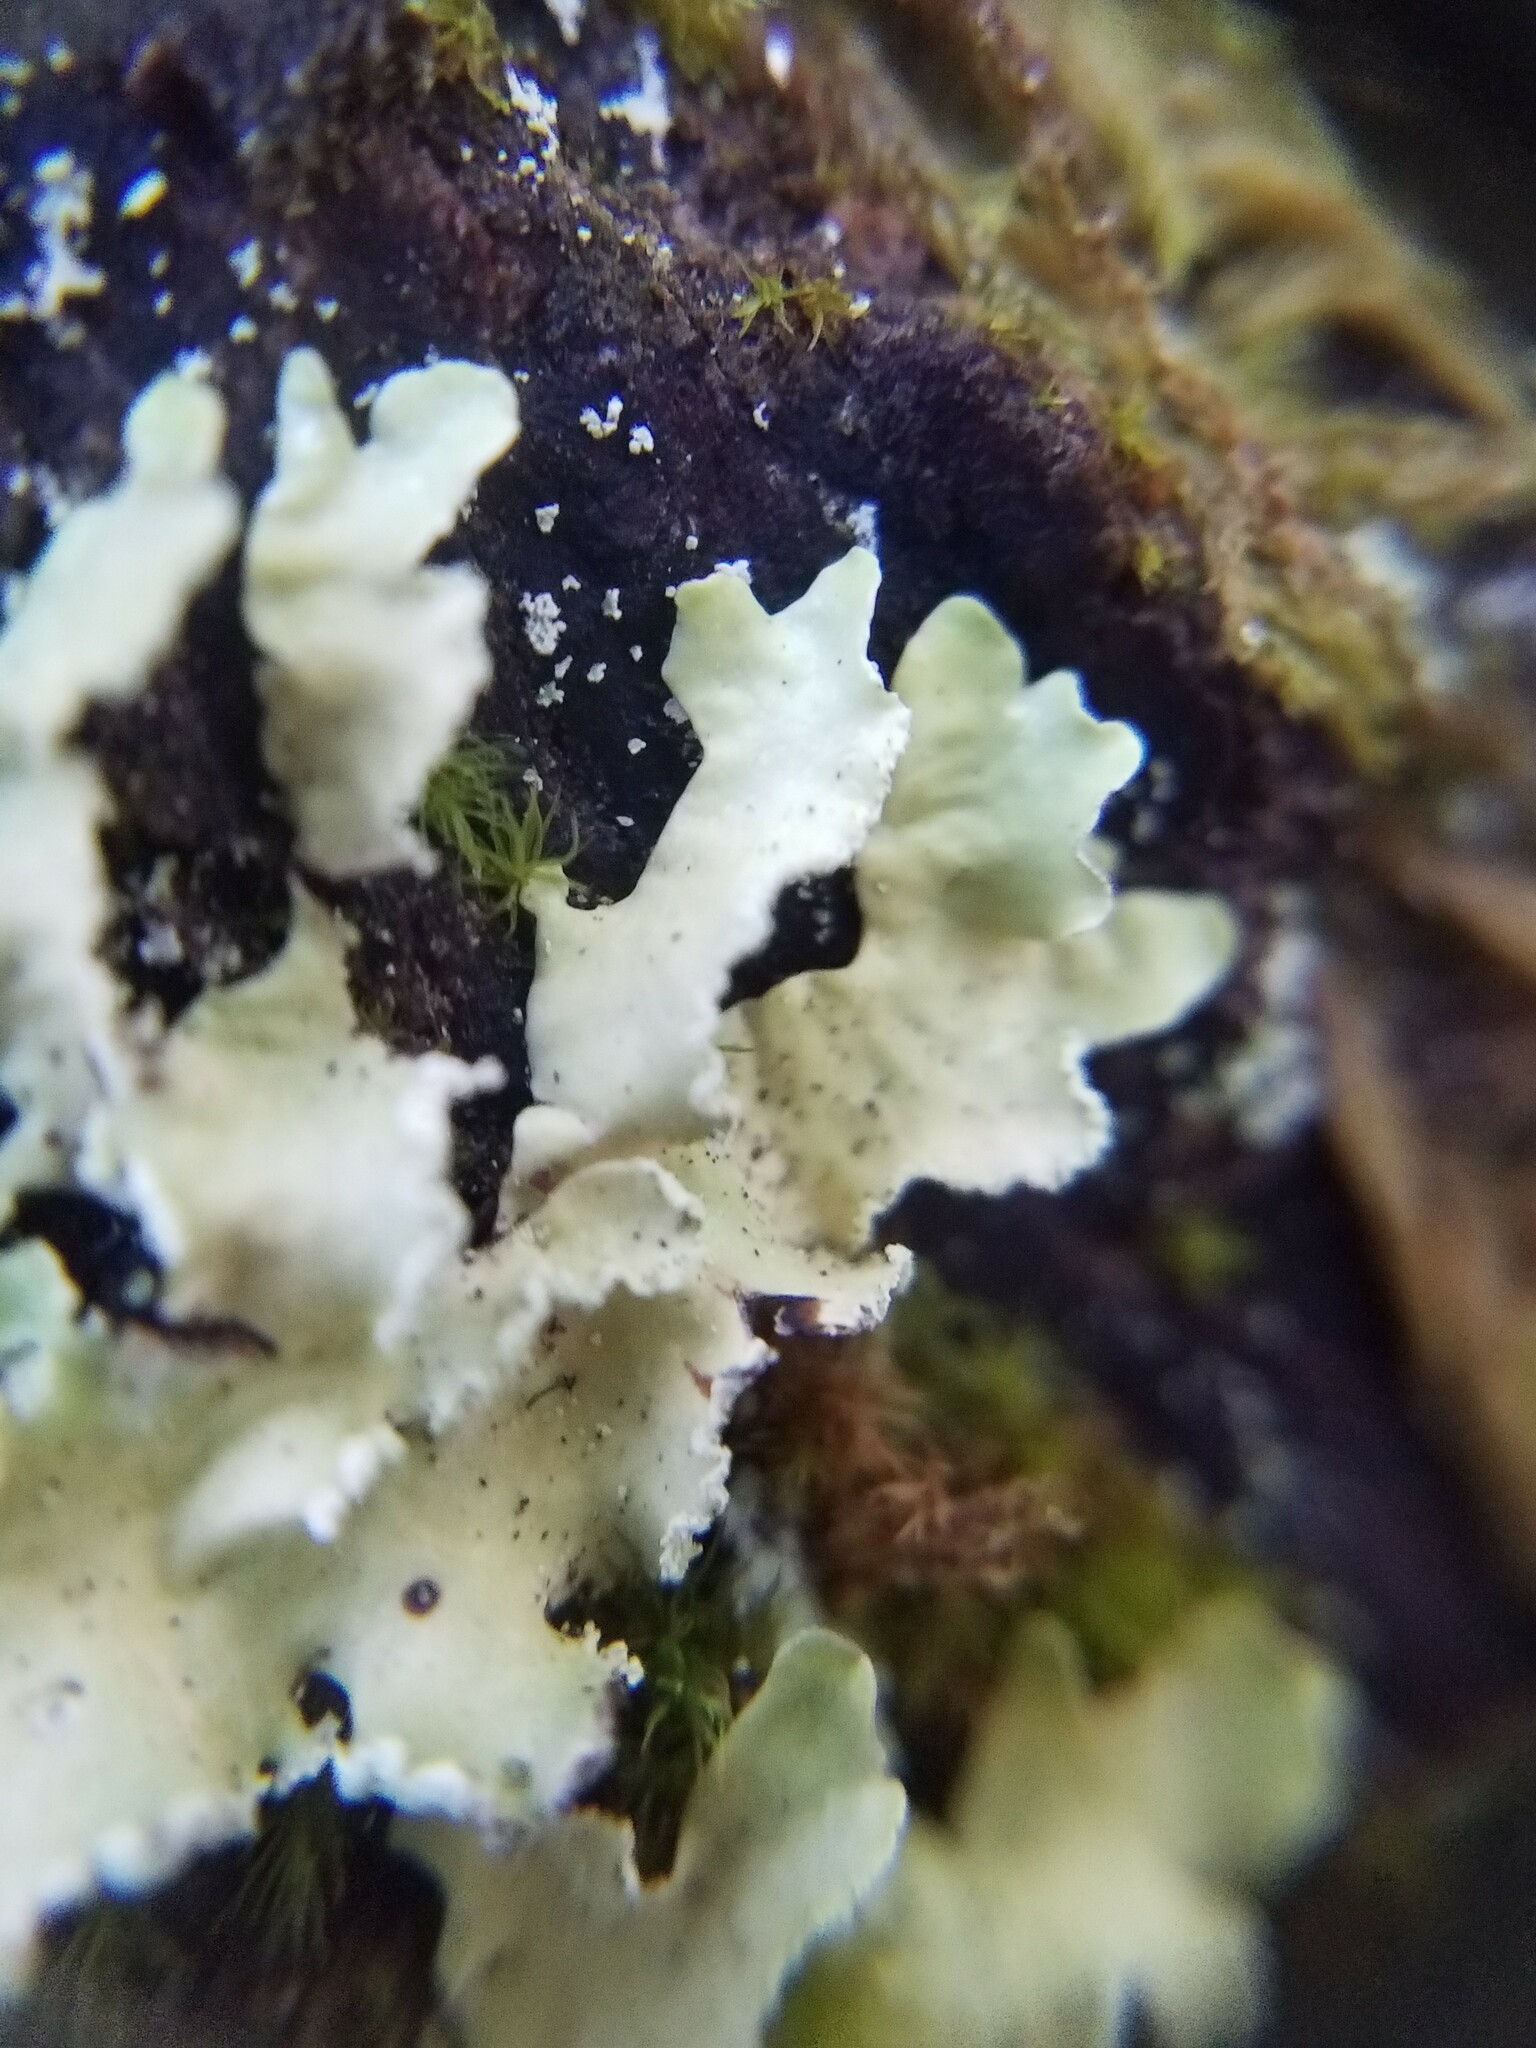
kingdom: Fungi
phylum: Ascomycota
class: Lecanoromycetes
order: Lecanorales
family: Parmeliaceae
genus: Usnocetraria
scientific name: Usnocetraria oakesiana
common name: Yellow ribbon lichen
